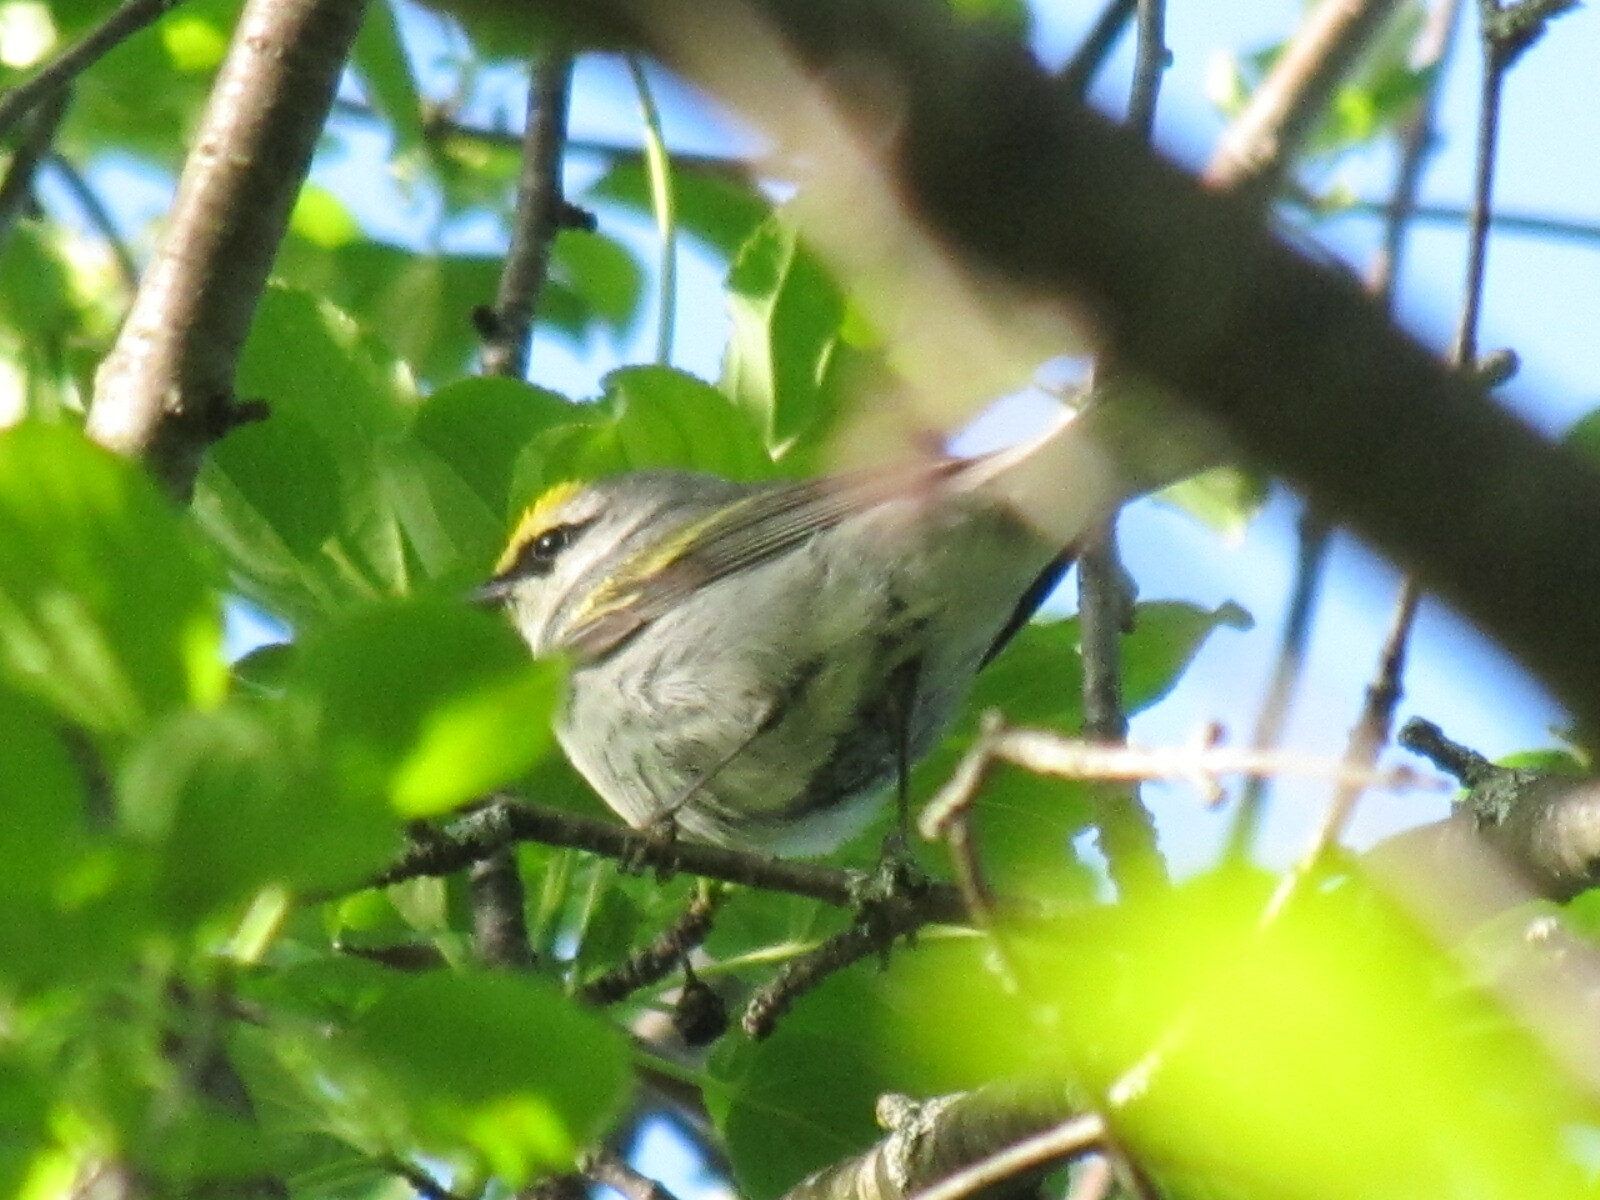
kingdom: Animalia
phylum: Chordata
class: Aves
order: Passeriformes
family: Parulidae
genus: Vermivora
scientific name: Vermivora
